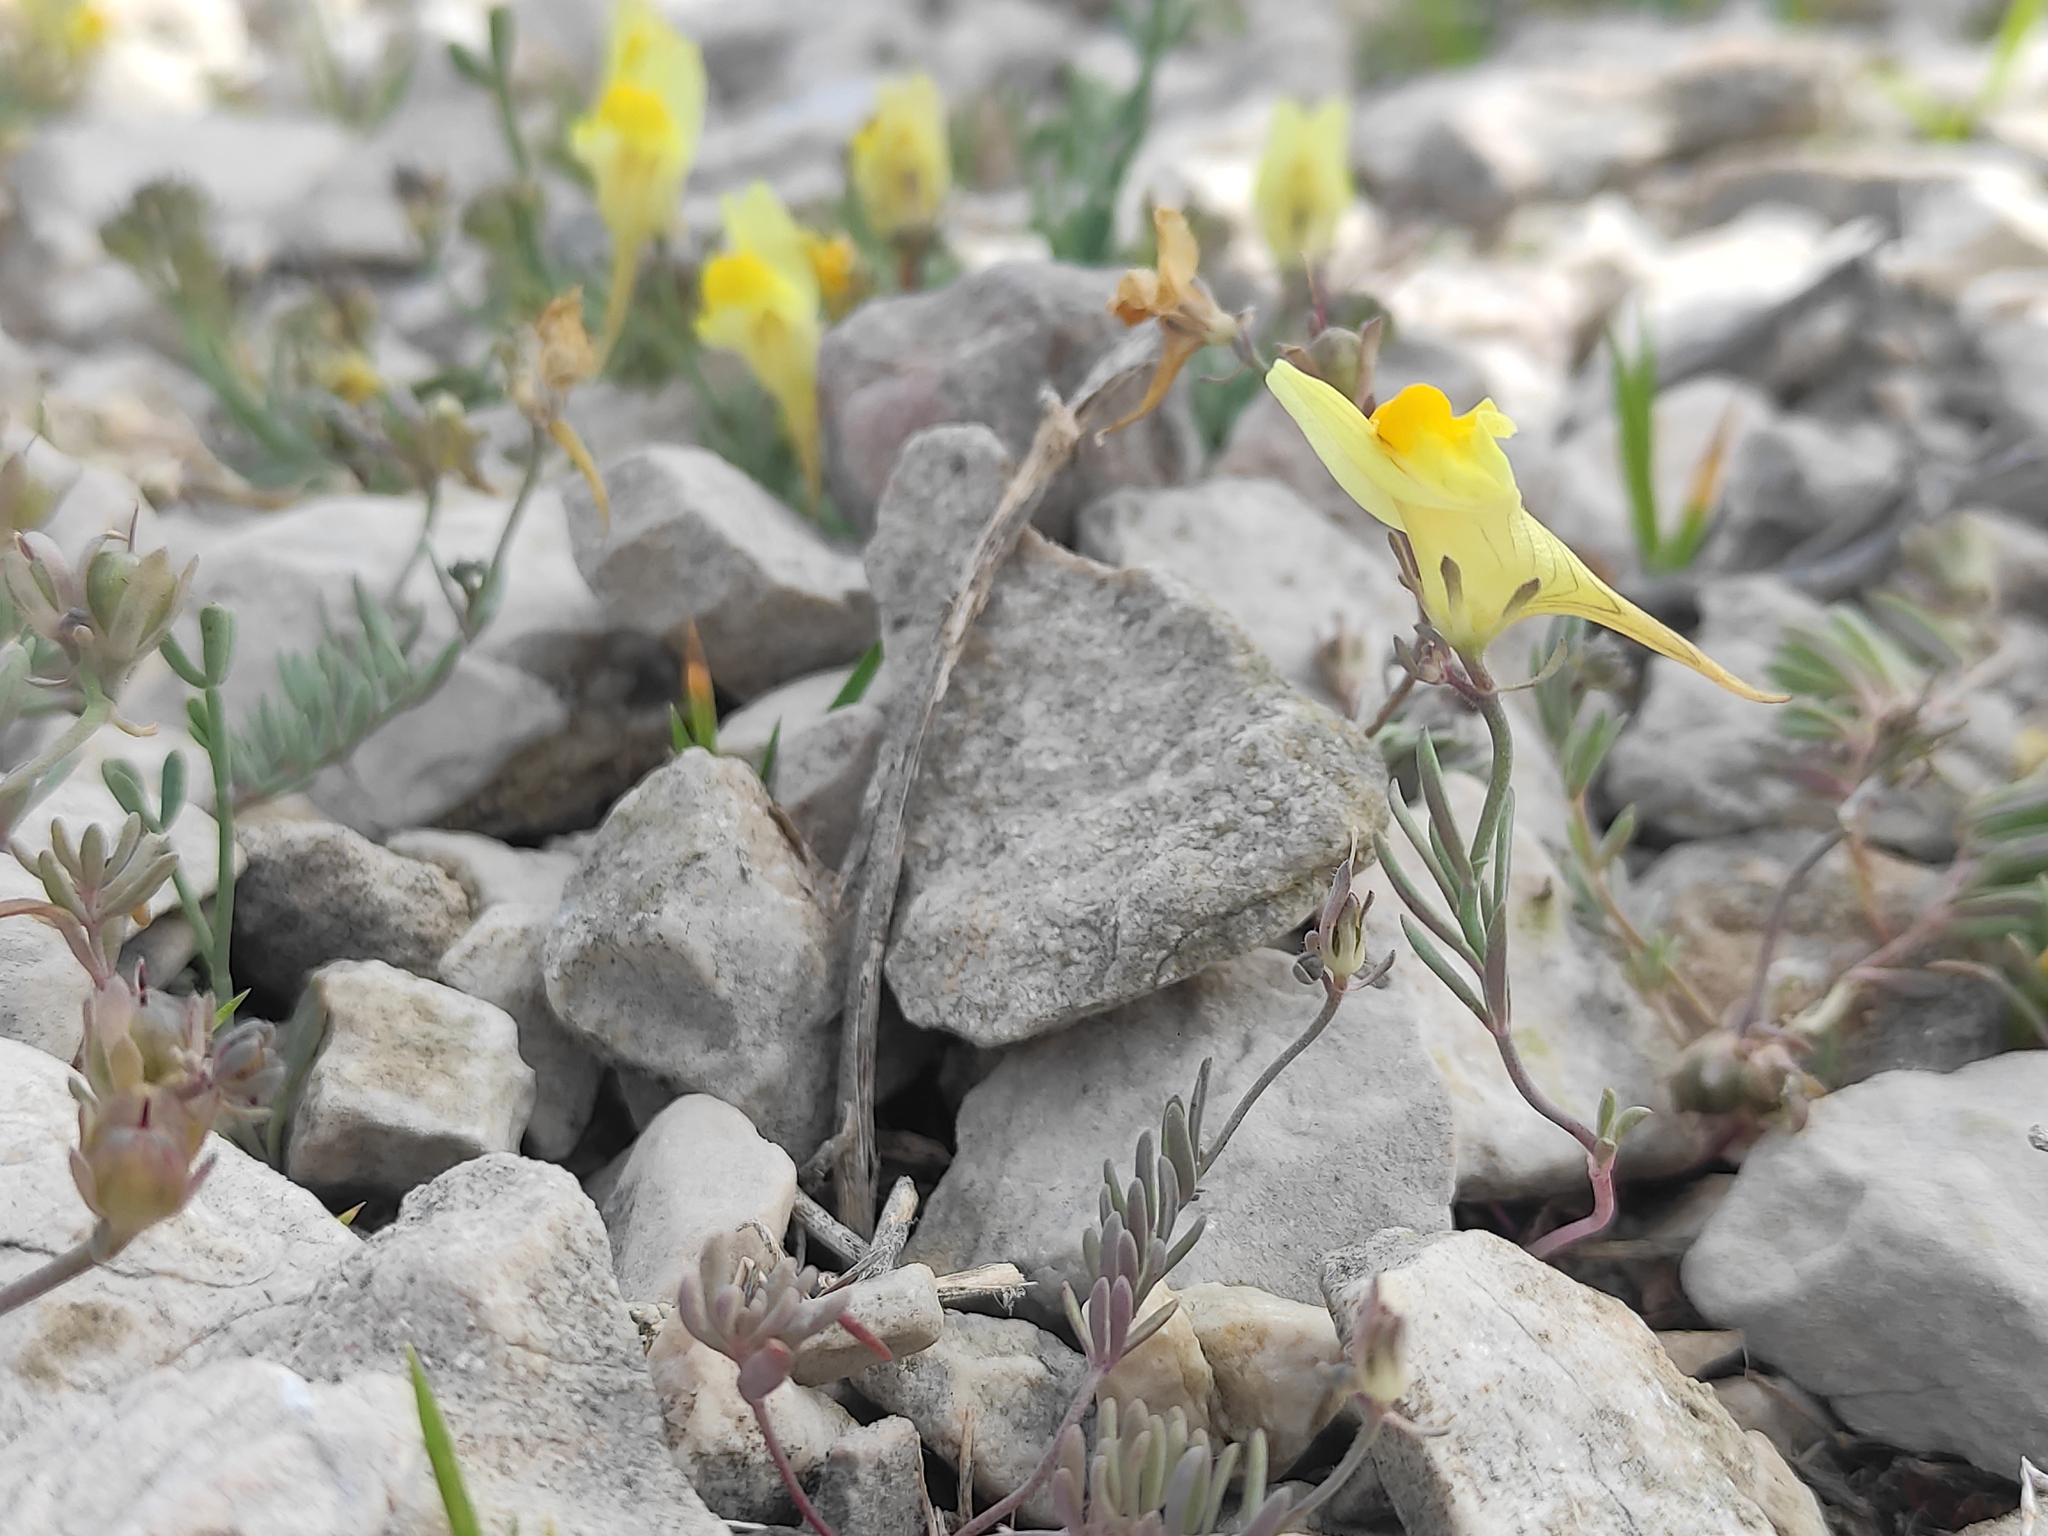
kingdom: Plantae
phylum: Tracheophyta
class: Magnoliopsida
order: Lamiales
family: Plantaginaceae
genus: Linaria
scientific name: Linaria supina
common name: Prostrate toadflax
